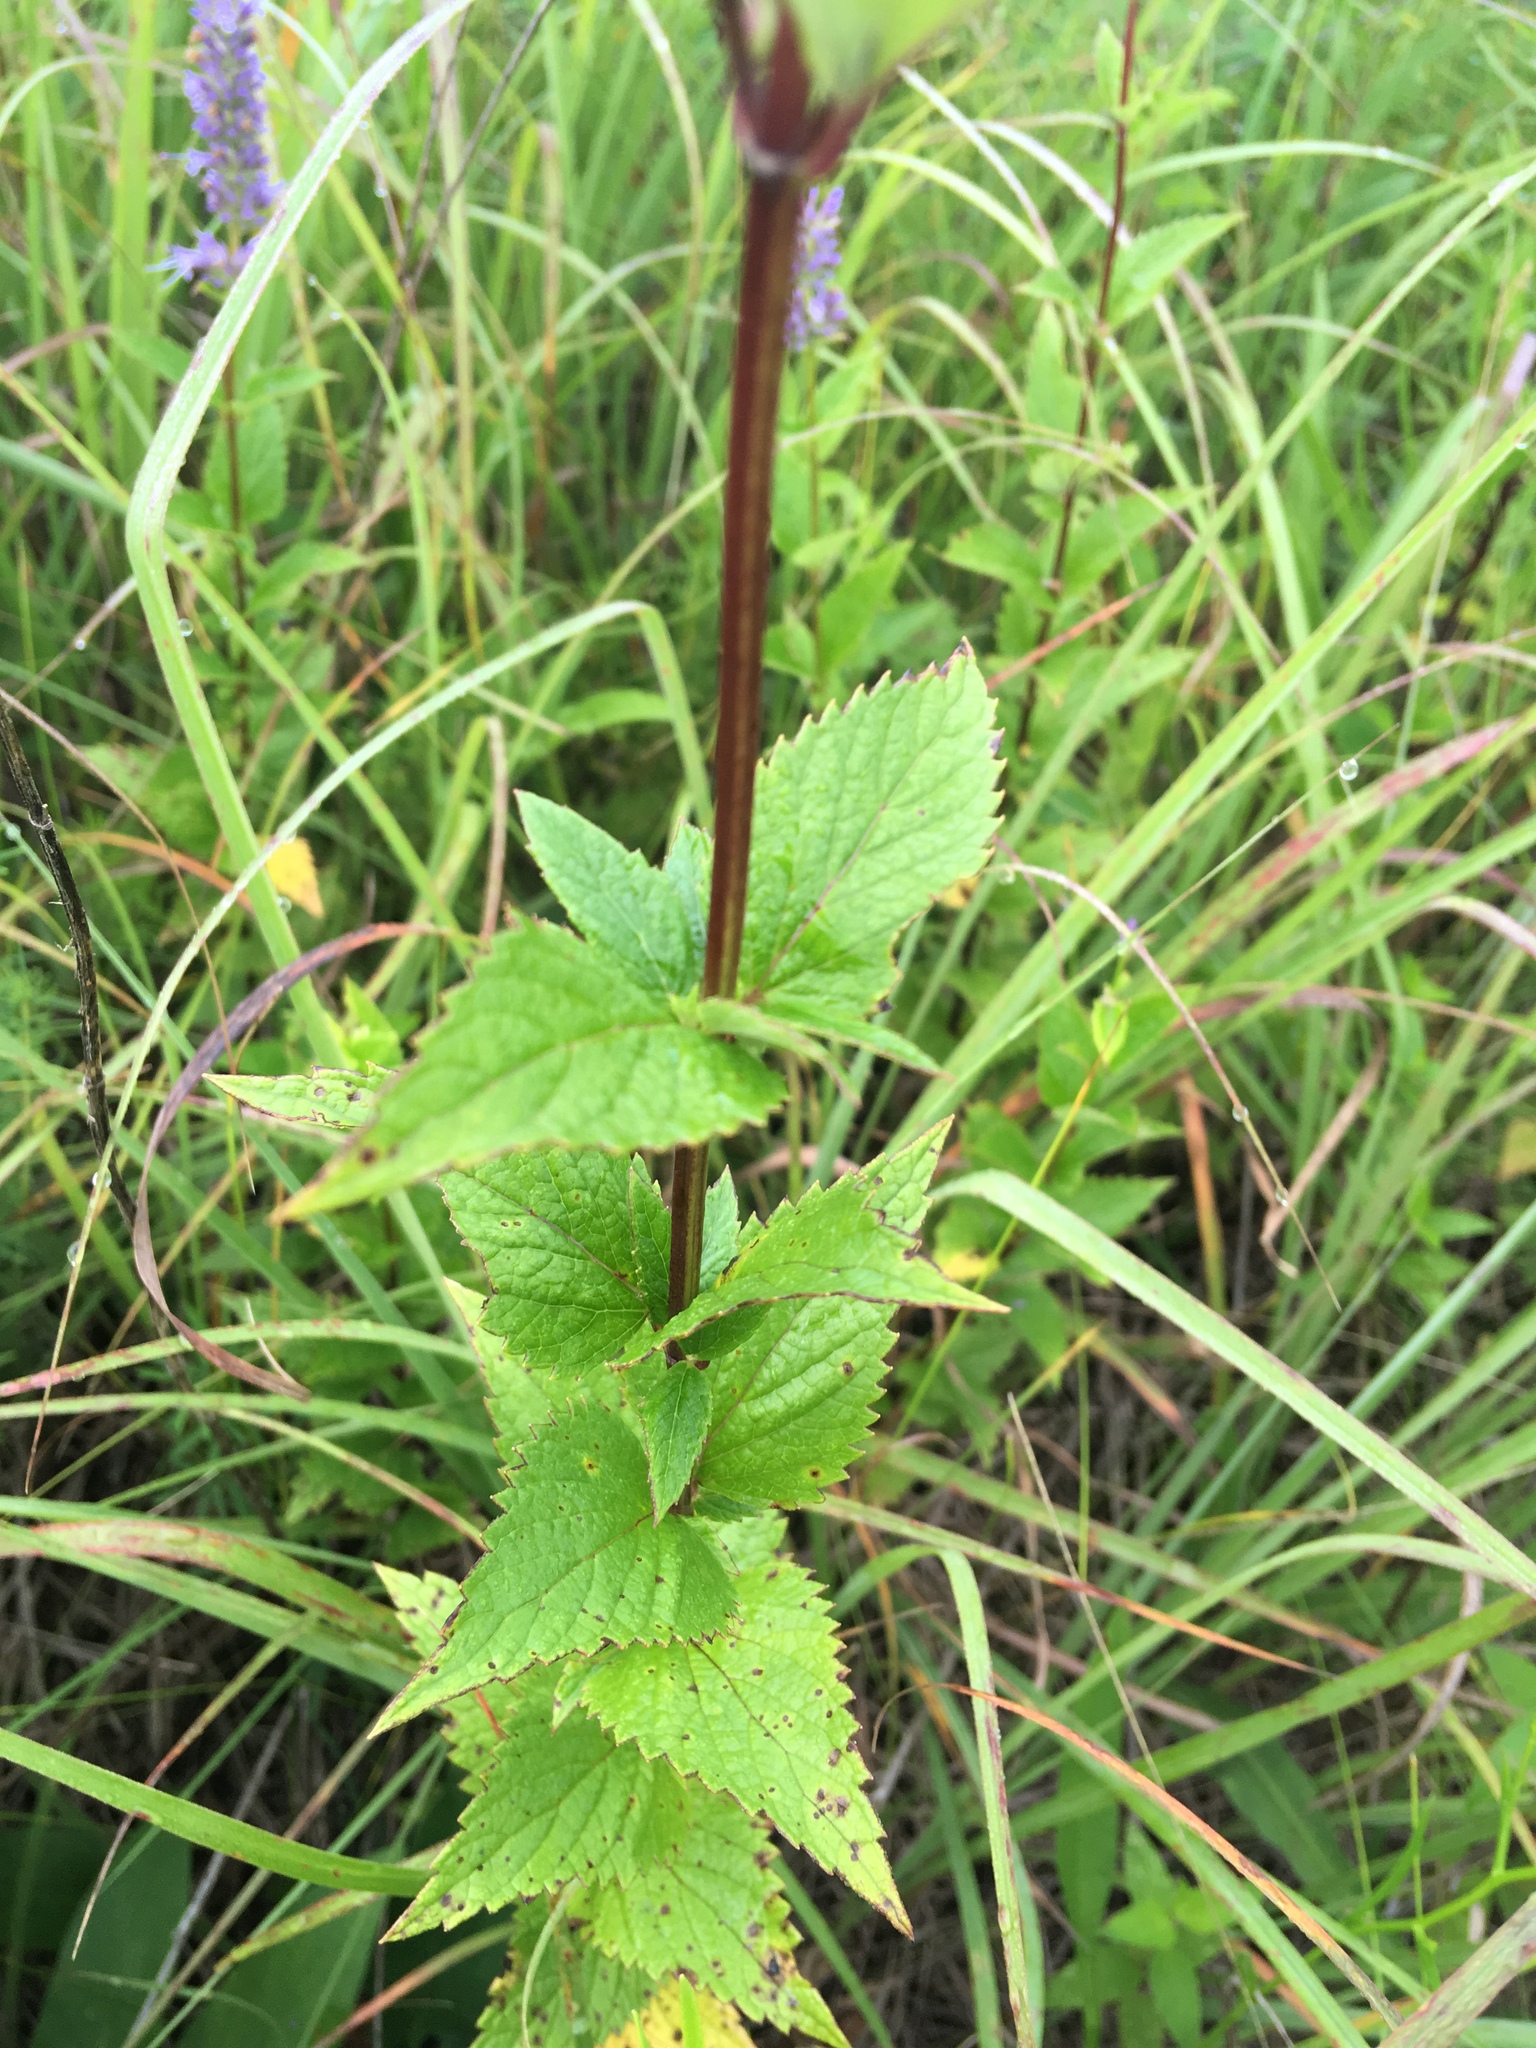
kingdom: Plantae
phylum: Tracheophyta
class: Magnoliopsida
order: Lamiales
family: Lamiaceae
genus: Agastache
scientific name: Agastache foeniculum
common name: Anise hyssop
